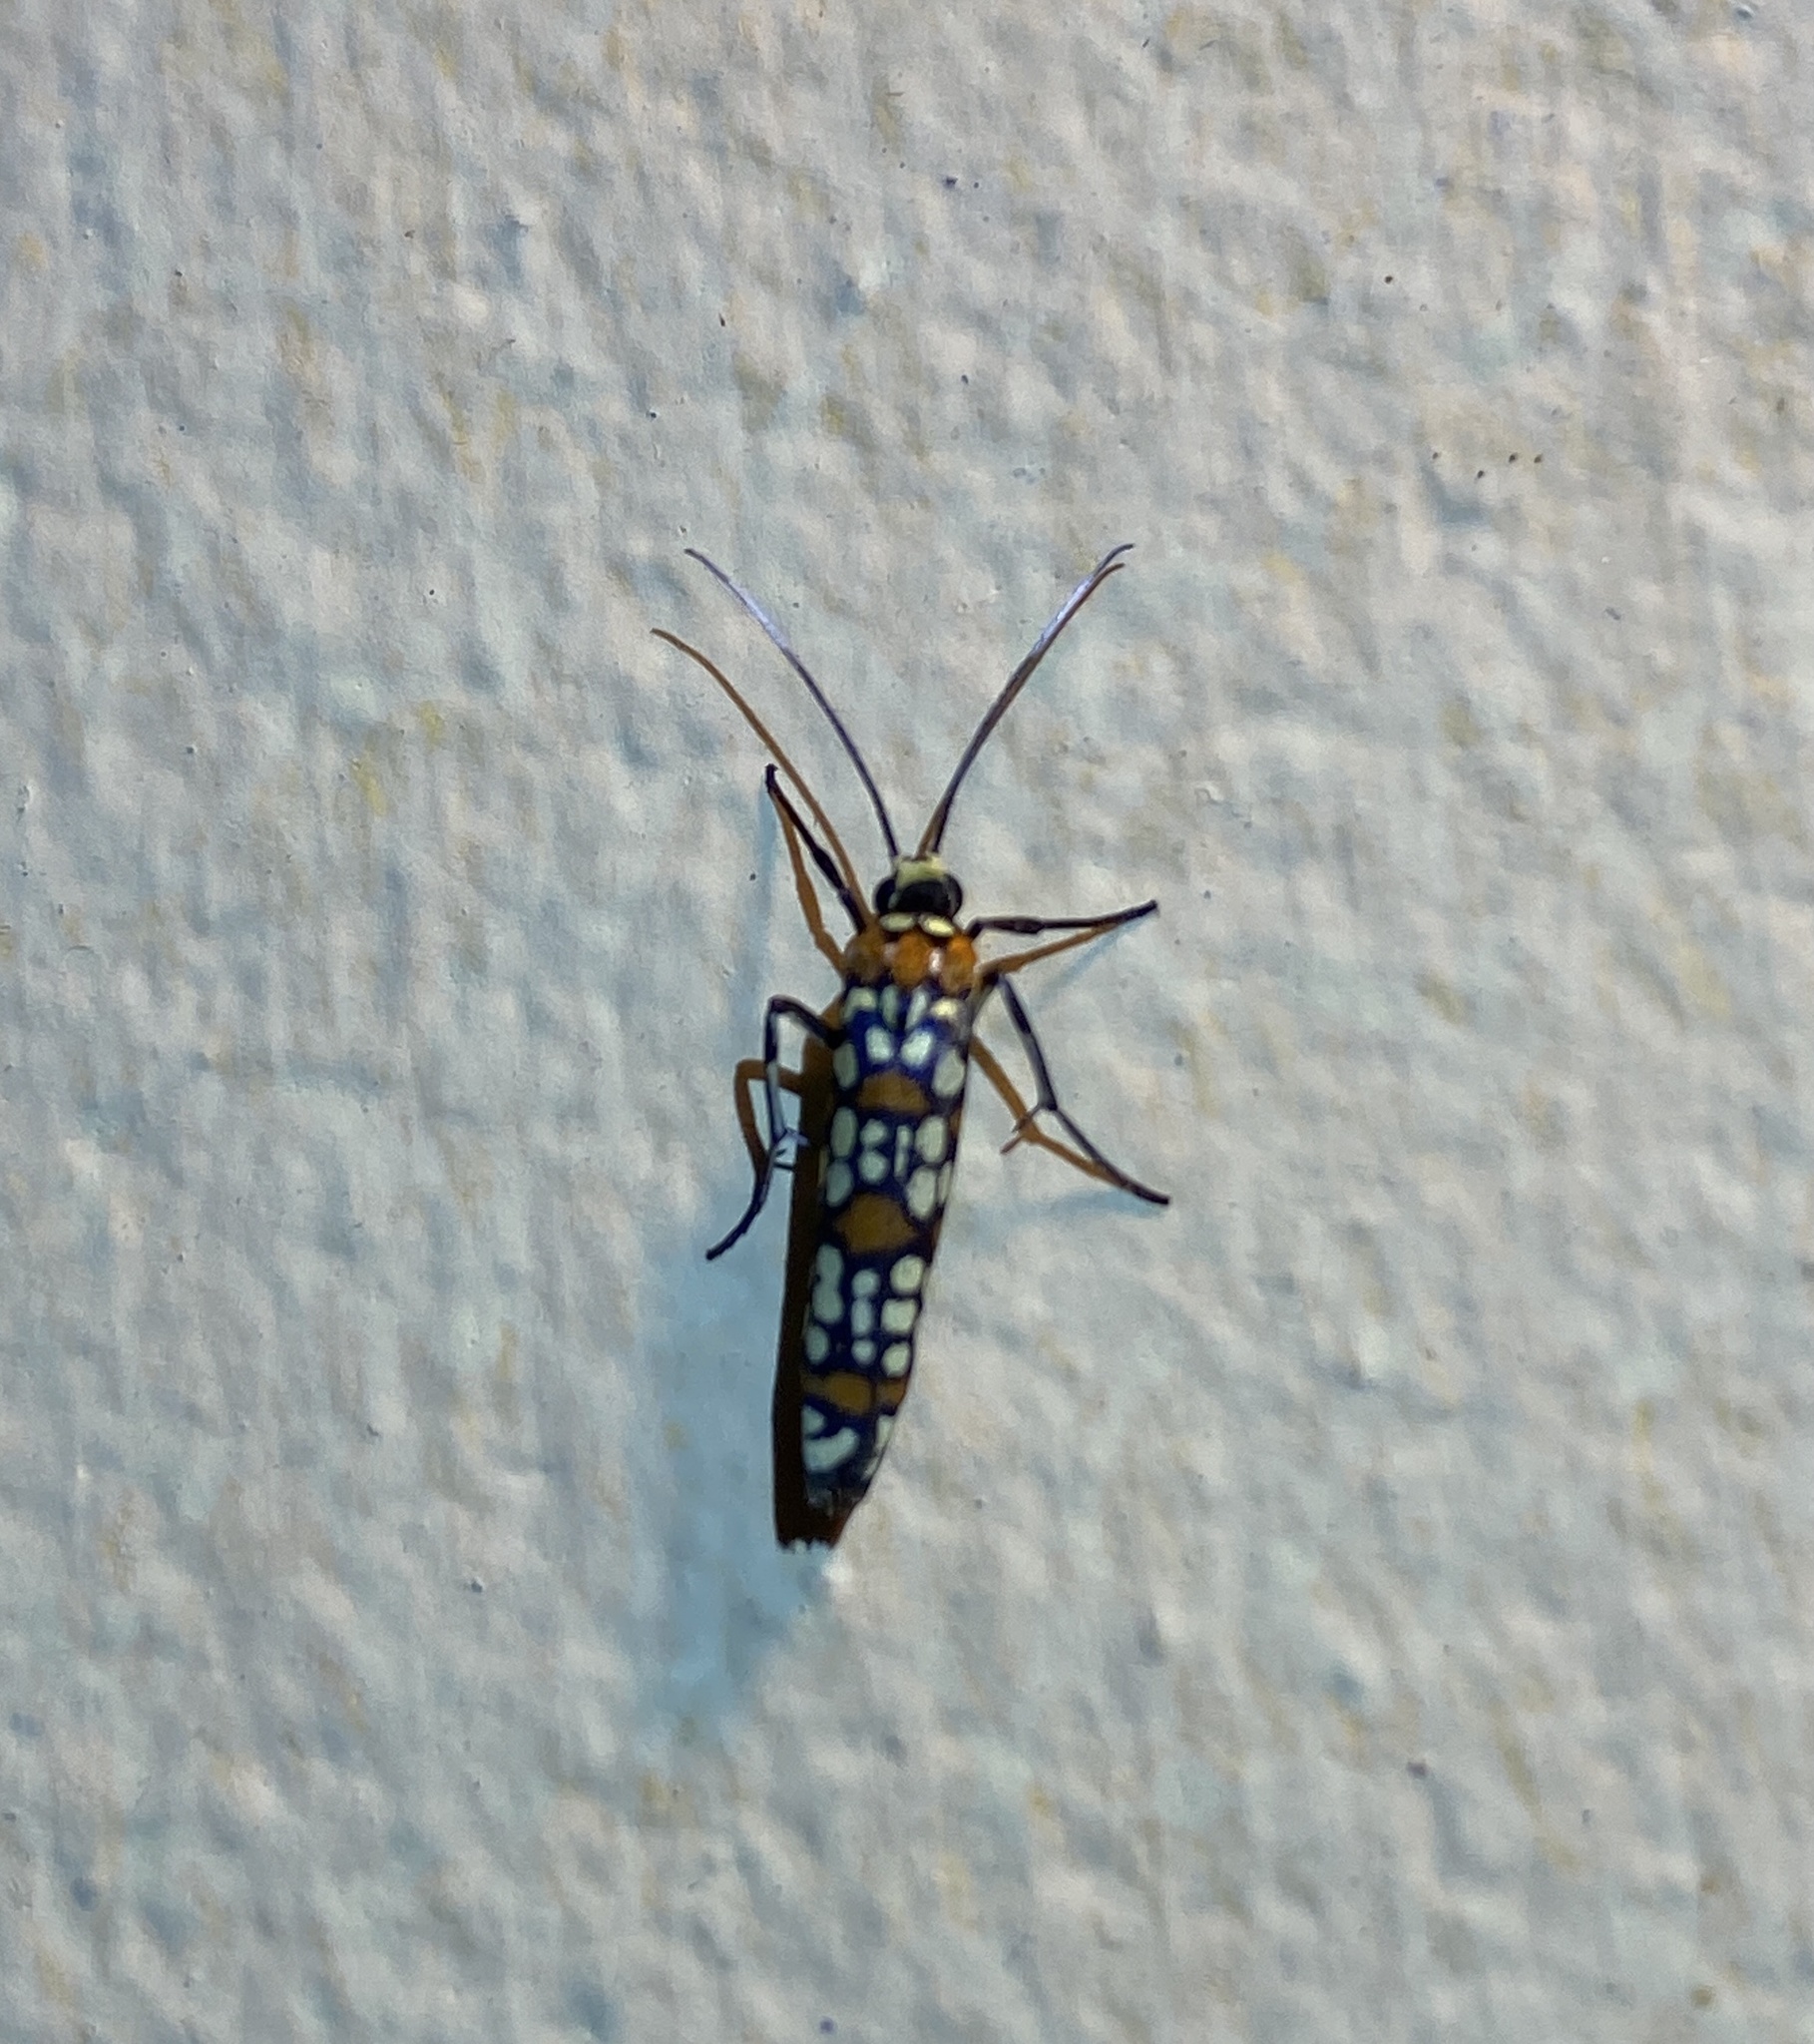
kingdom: Animalia
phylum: Arthropoda
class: Insecta
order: Lepidoptera
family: Attevidae
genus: Atteva
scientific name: Atteva punctella
